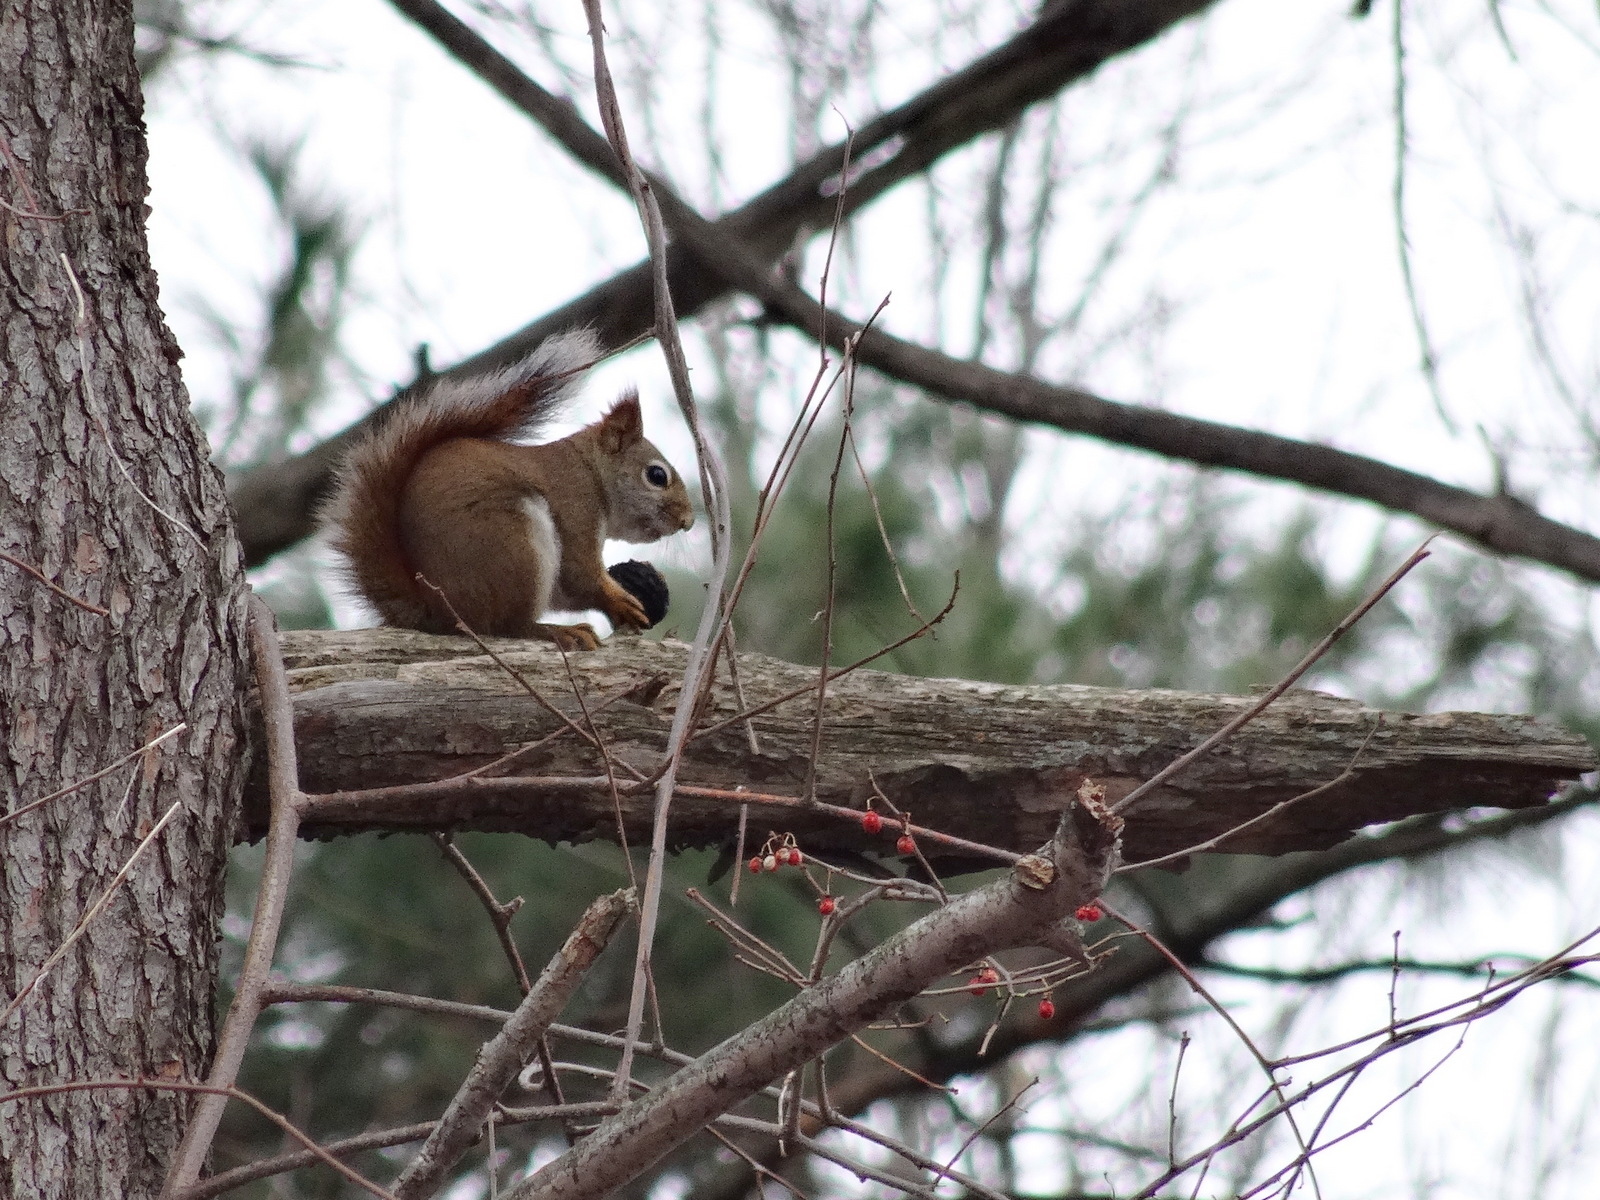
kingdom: Animalia
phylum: Chordata
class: Mammalia
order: Rodentia
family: Sciuridae
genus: Tamiasciurus
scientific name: Tamiasciurus hudsonicus
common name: Red squirrel
